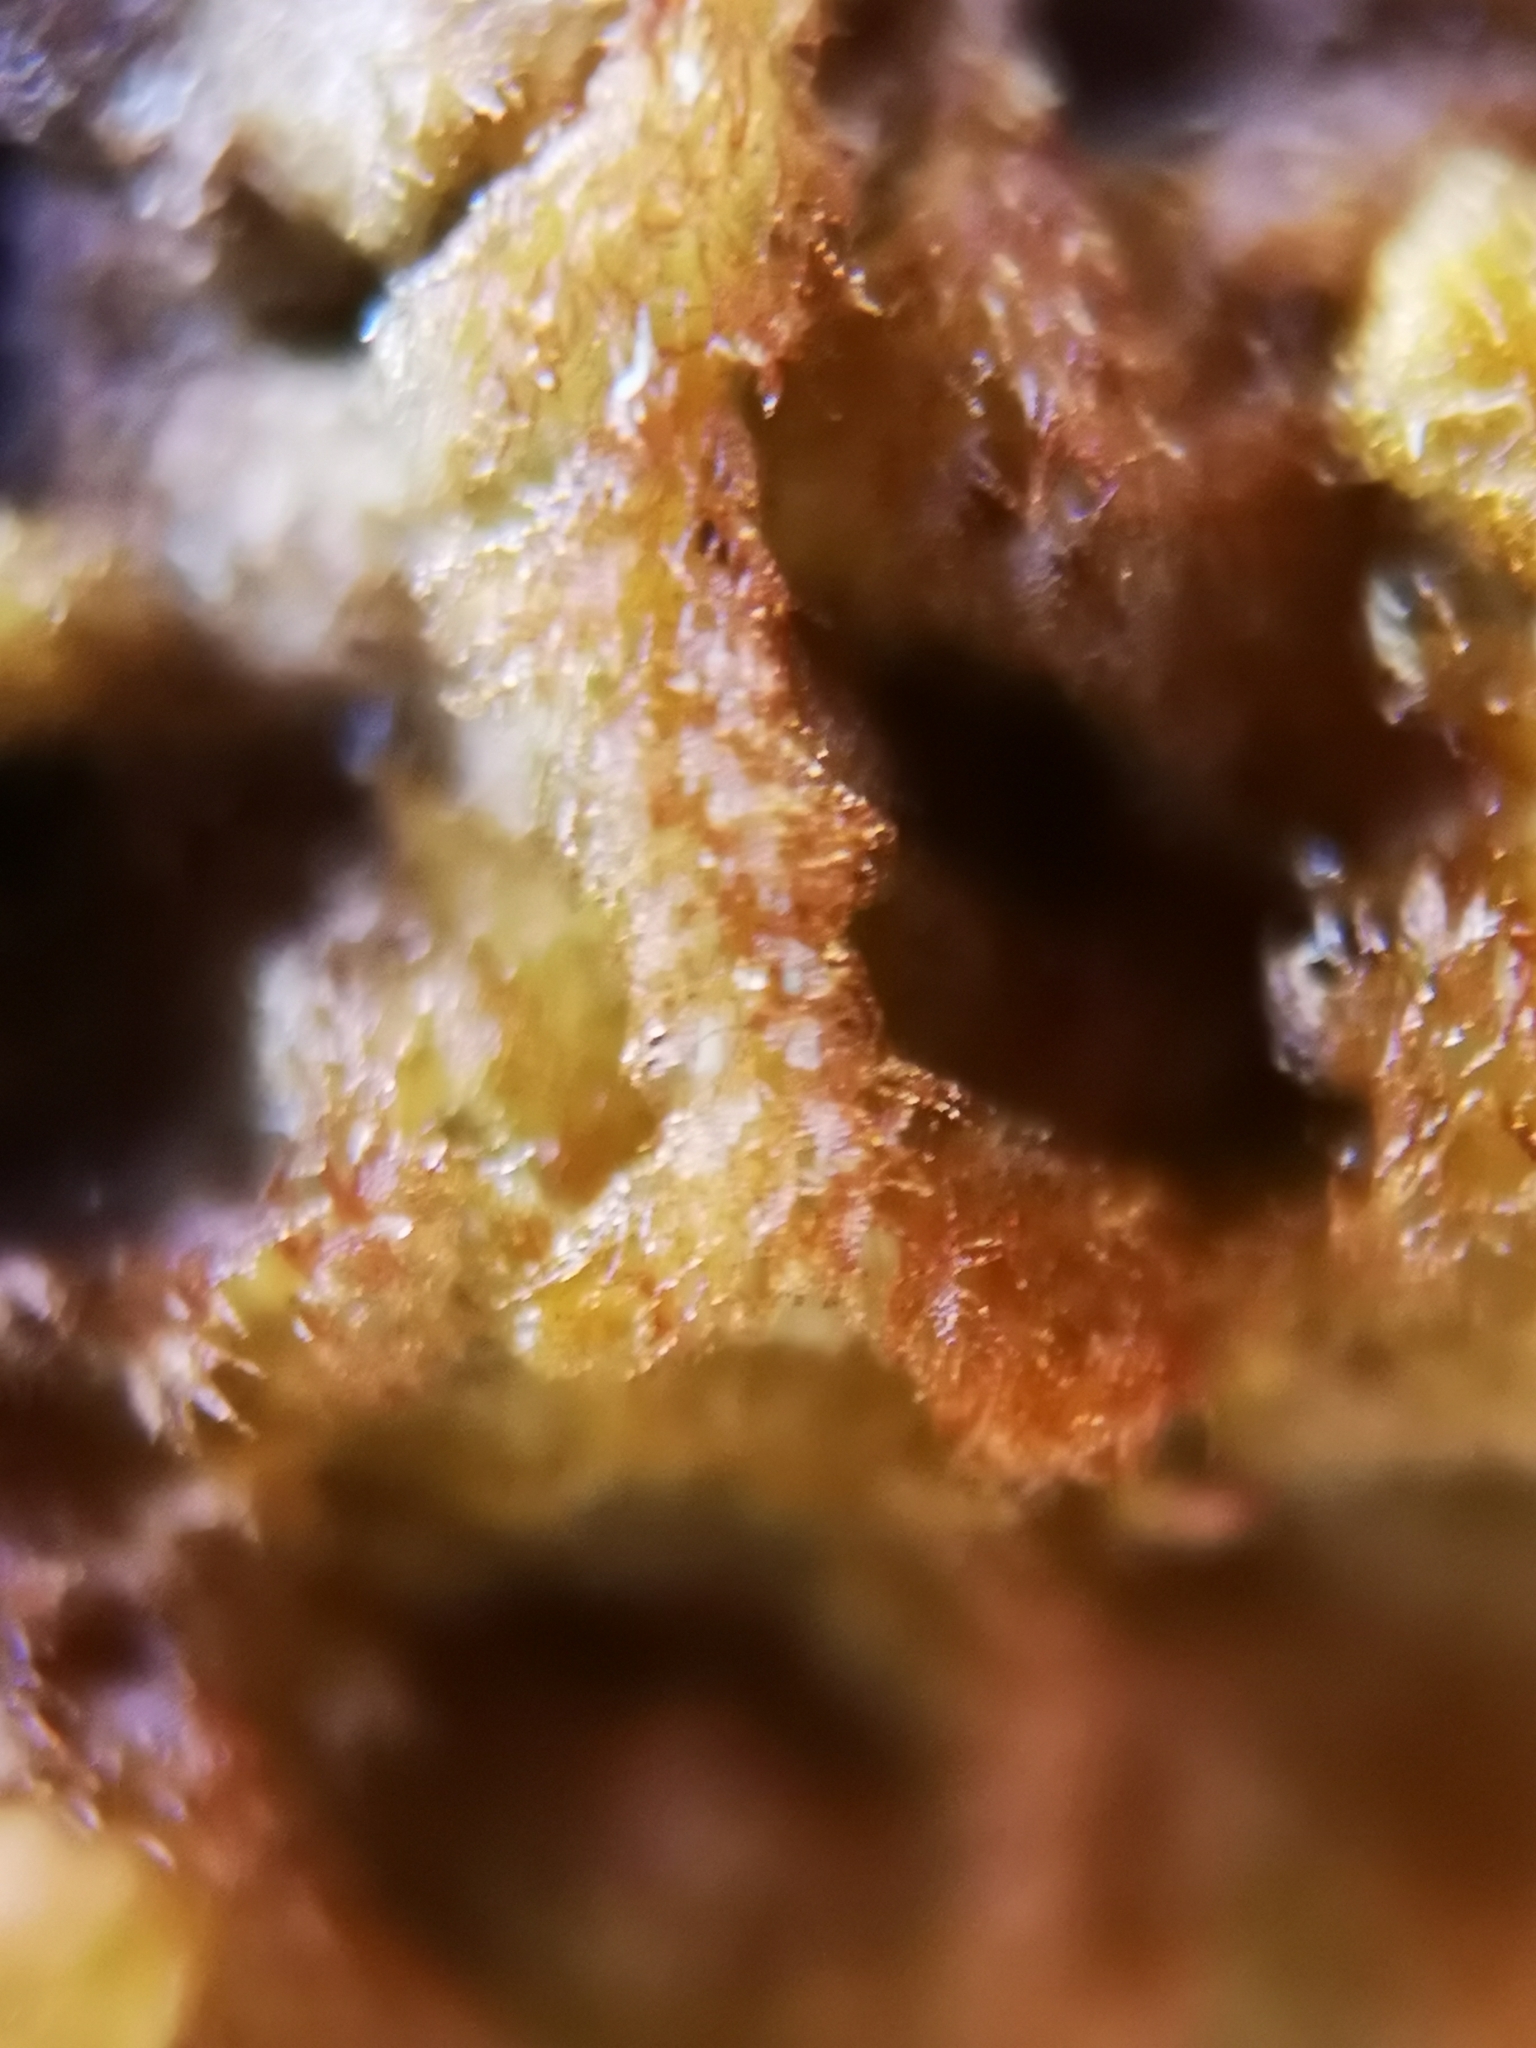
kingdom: Plantae
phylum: Marchantiophyta
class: Jungermanniopsida
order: Ptilidiales
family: Ptilidiaceae
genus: Ptilidium
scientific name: Ptilidium pulcherrimum
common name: Tree fringewort
